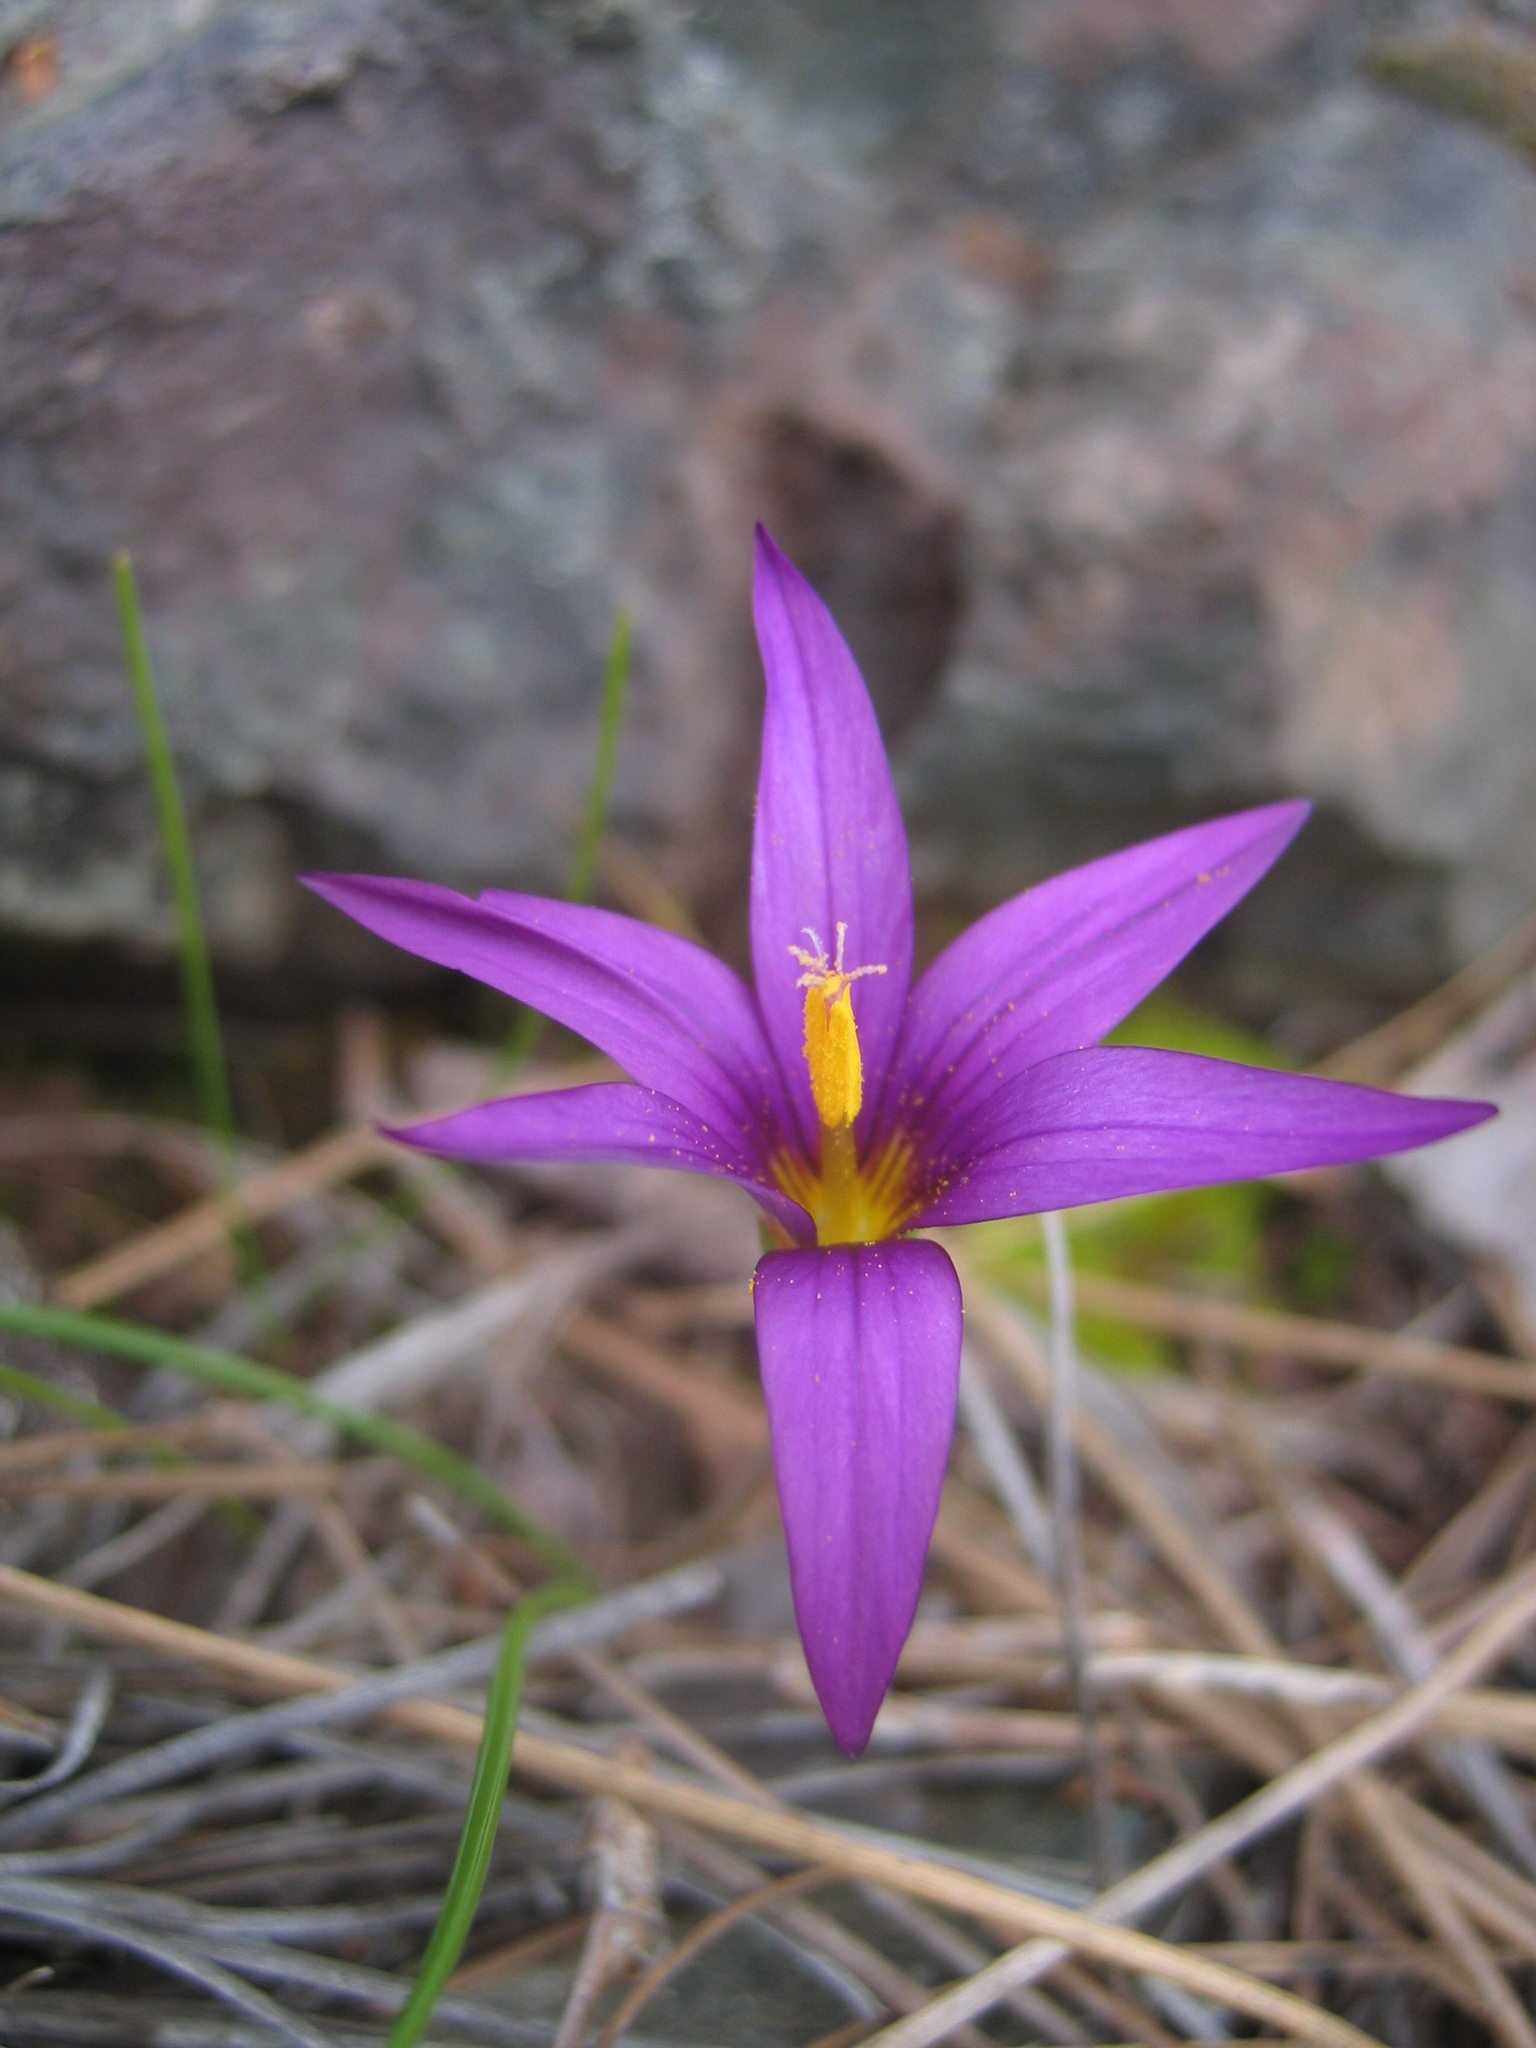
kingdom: Plantae
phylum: Tracheophyta
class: Liliopsida
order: Asparagales
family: Iridaceae
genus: Romulea
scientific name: Romulea columnae
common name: Sand-crocus
